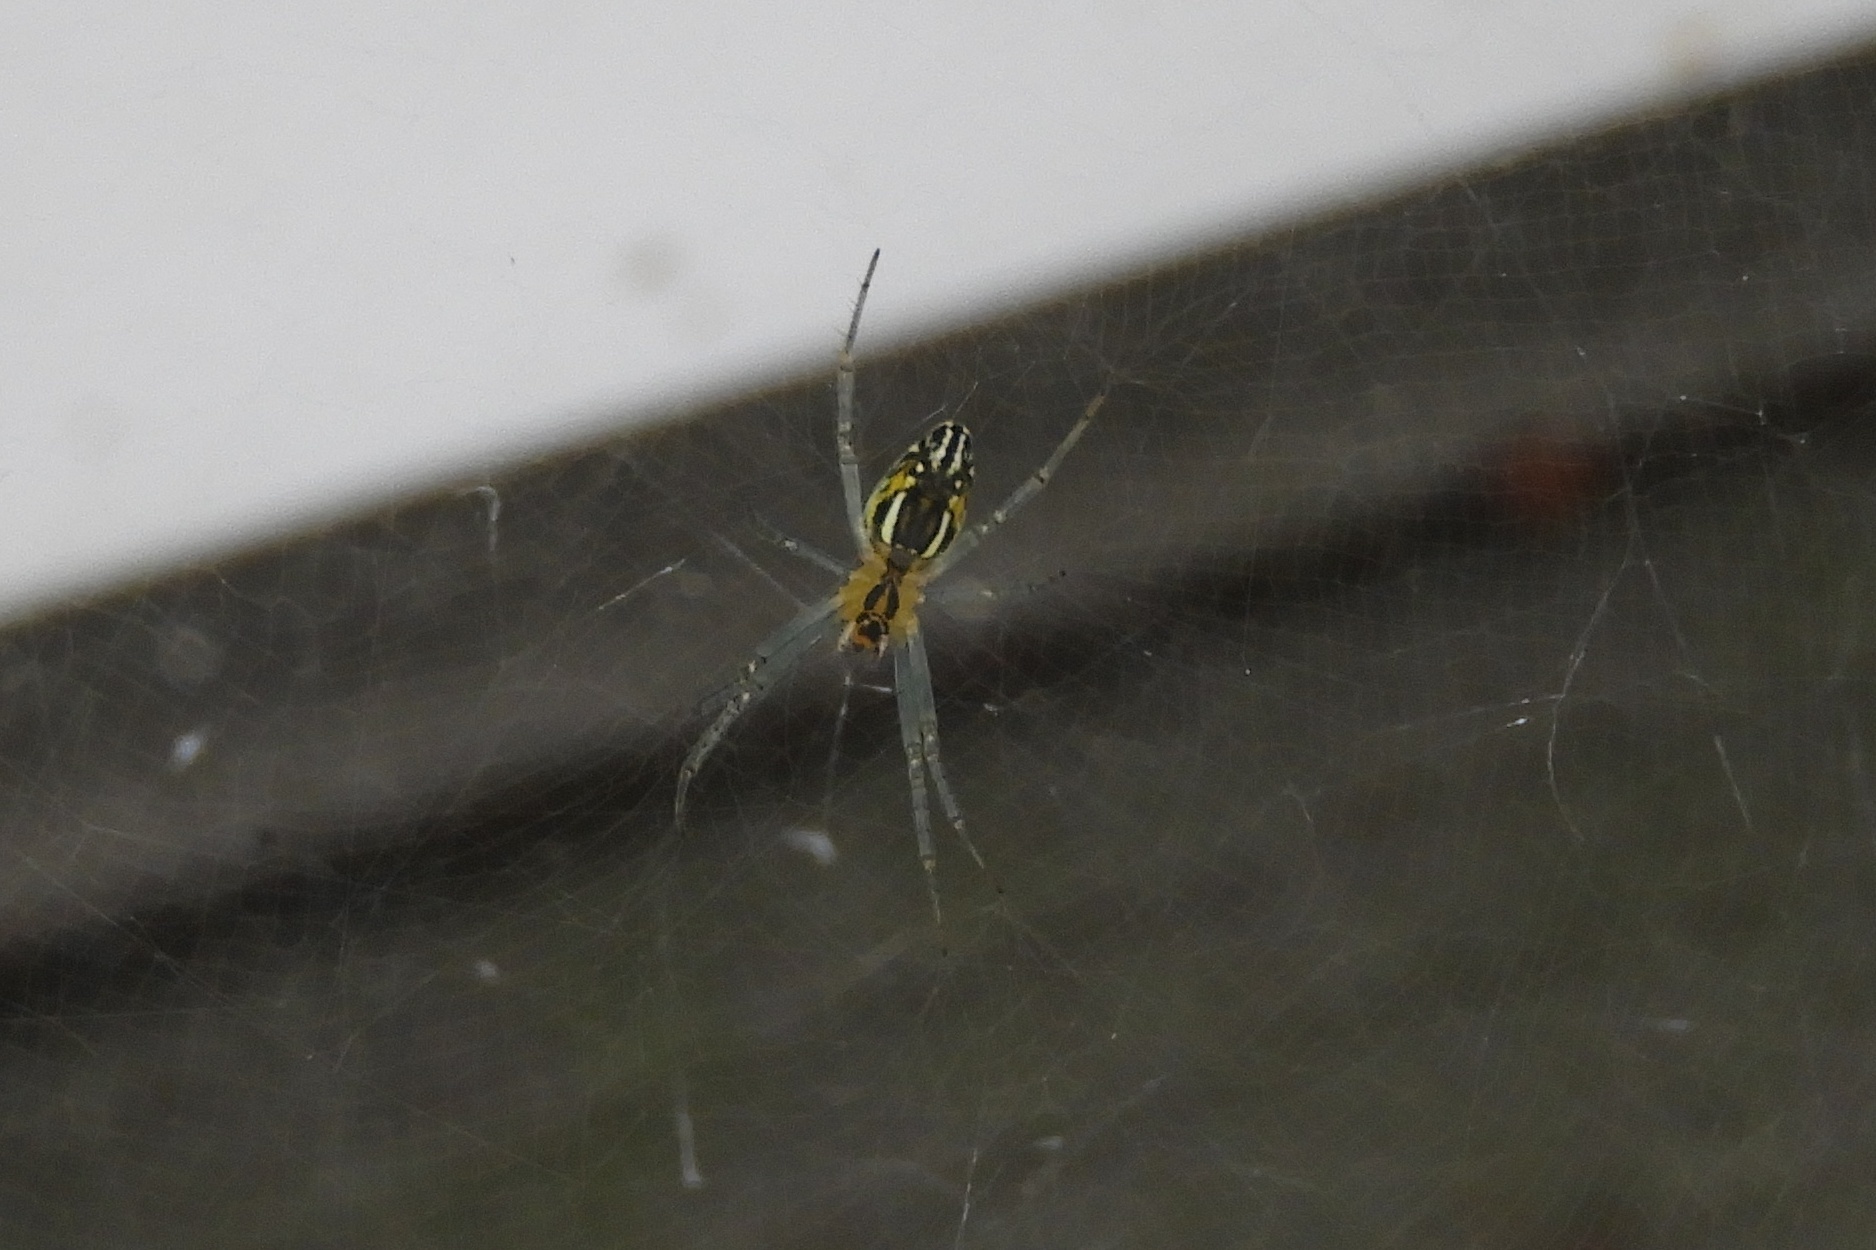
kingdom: Animalia
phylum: Arthropoda
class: Arachnida
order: Araneae
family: Araneidae
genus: Mecynogea
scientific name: Mecynogea lemniscata
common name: Orb weavers
